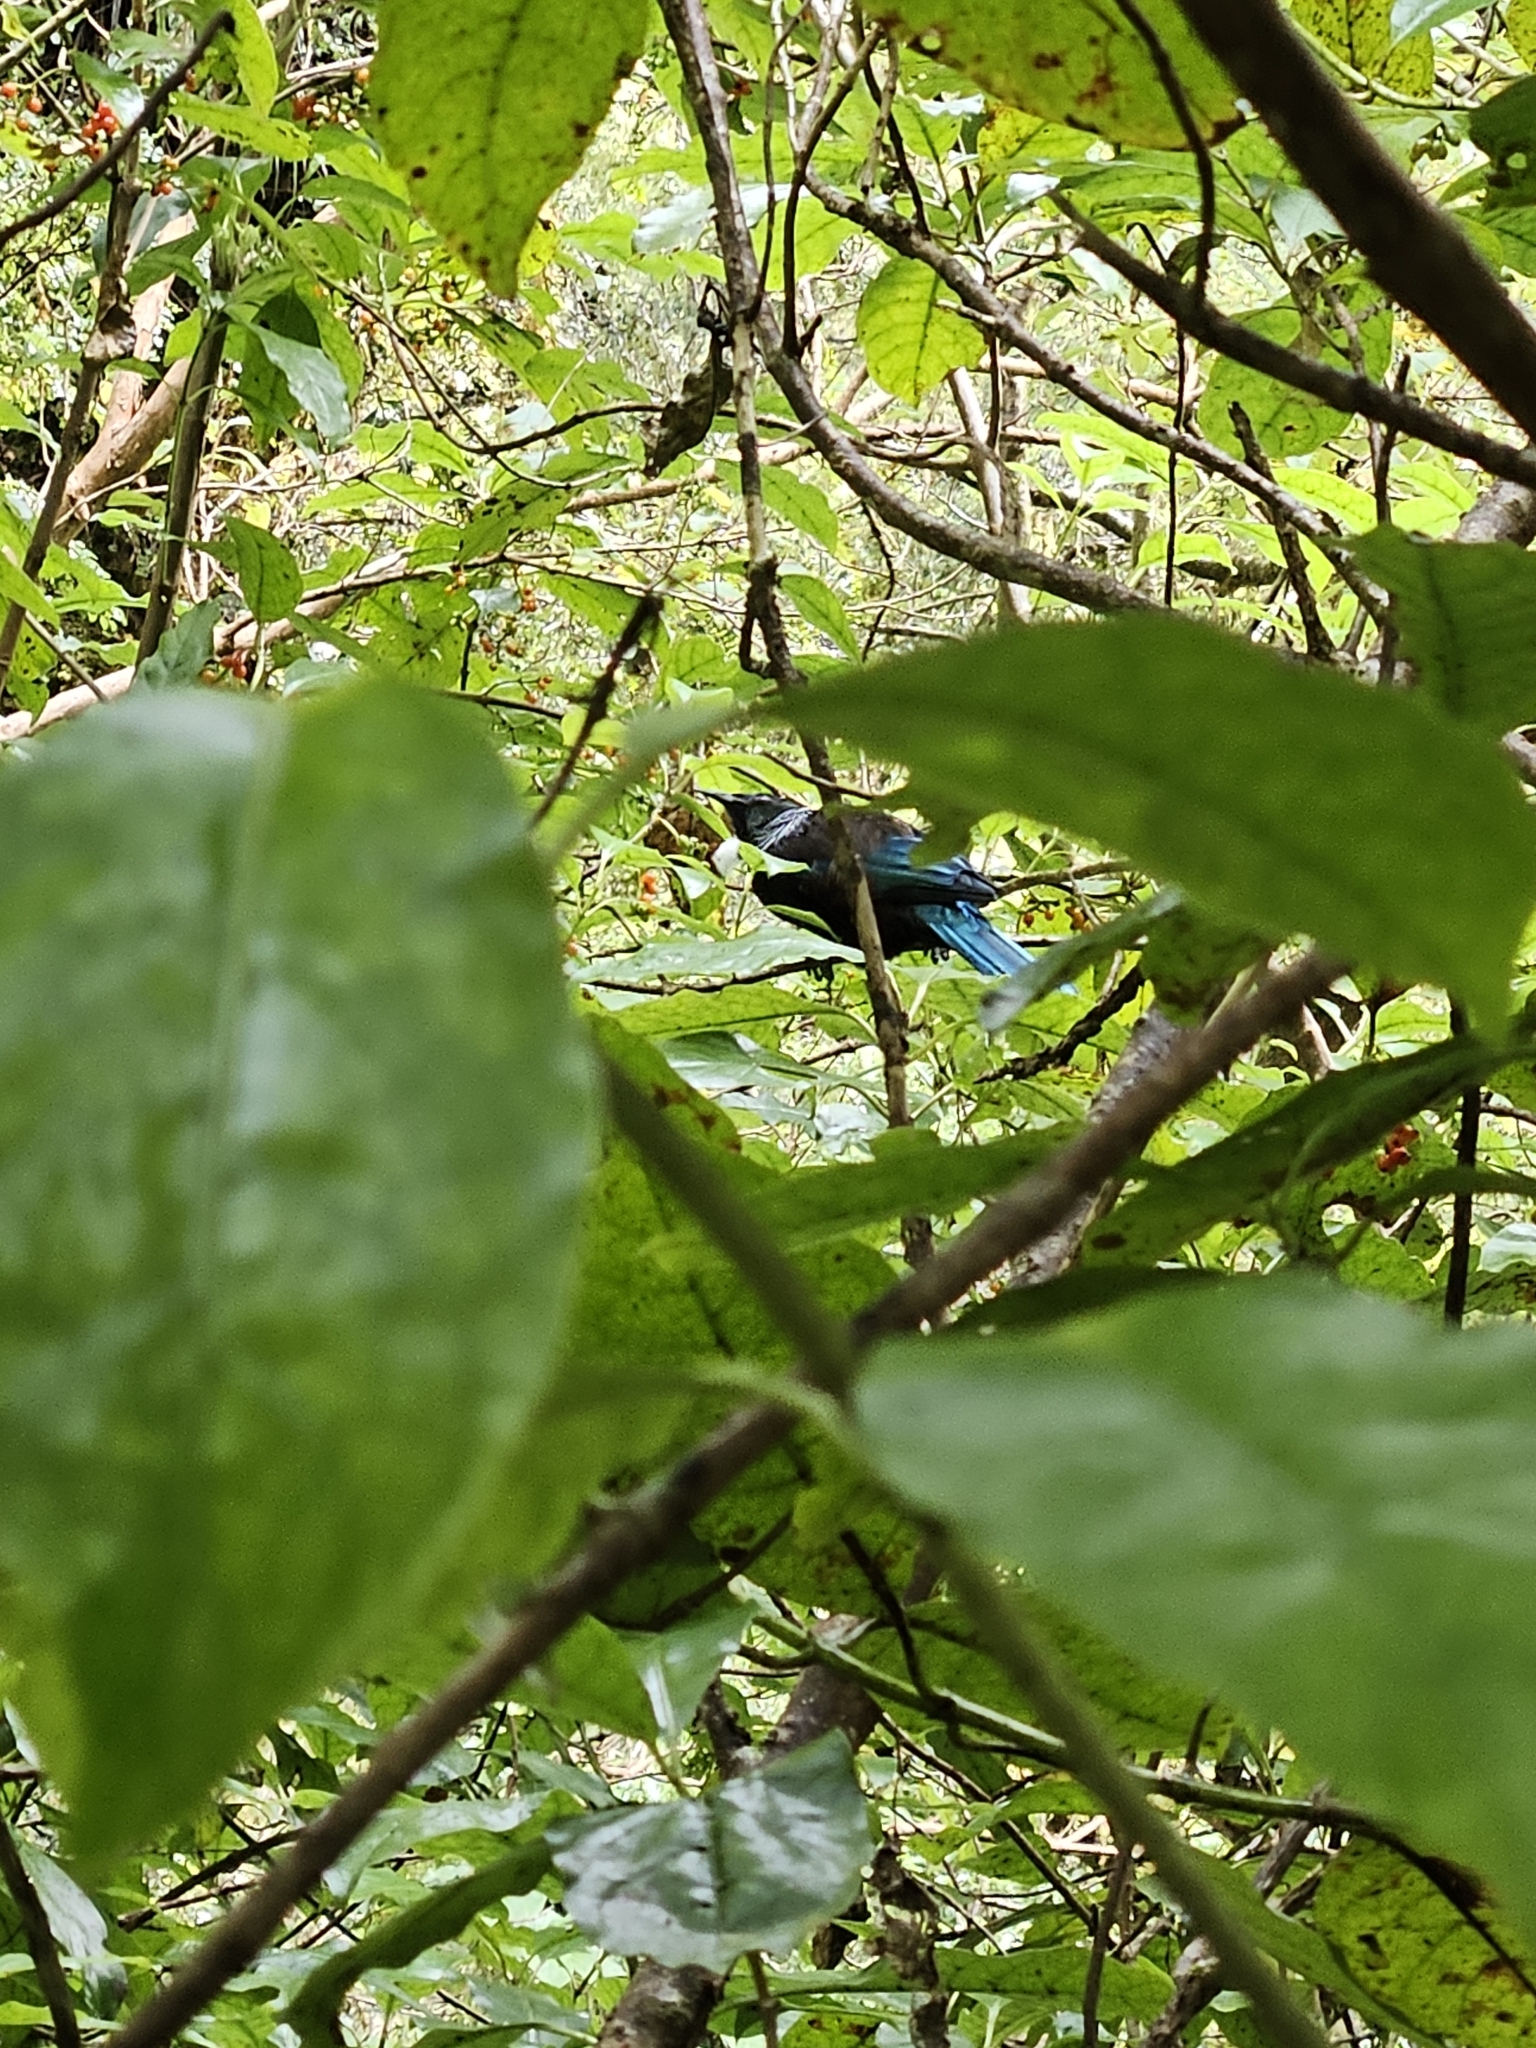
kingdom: Animalia
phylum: Chordata
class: Aves
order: Passeriformes
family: Meliphagidae
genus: Prosthemadera
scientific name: Prosthemadera novaeseelandiae
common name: Tui
